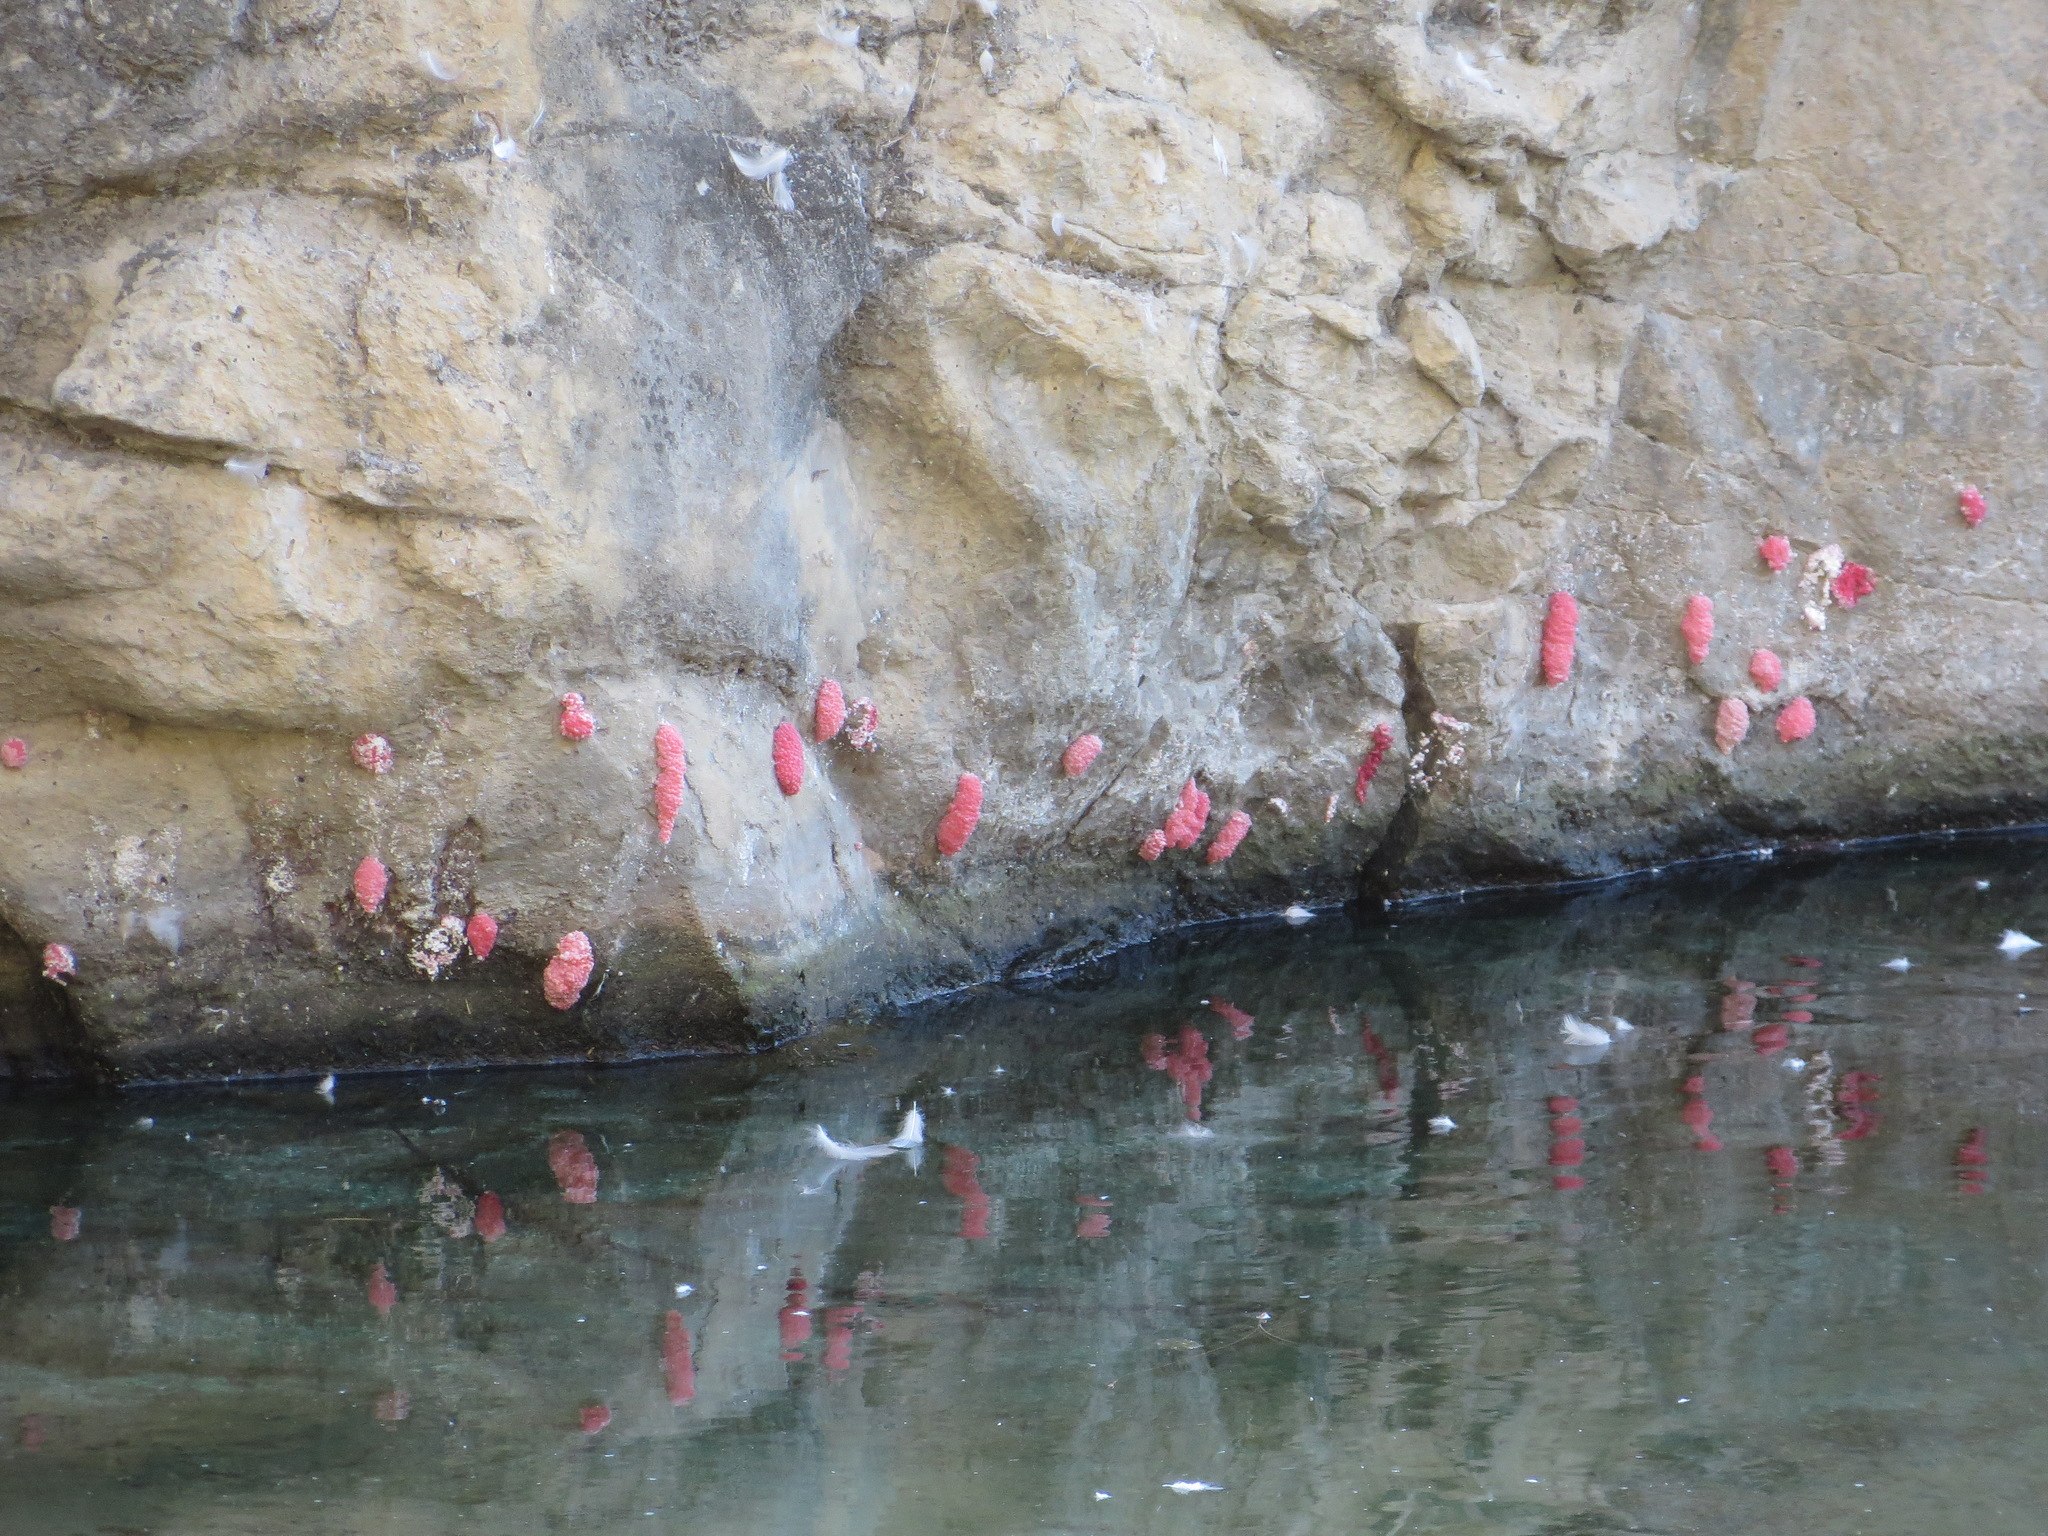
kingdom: Animalia
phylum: Mollusca
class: Gastropoda
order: Architaenioglossa
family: Ampullariidae
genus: Pomacea
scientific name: Pomacea canaliculata
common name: Channeled applesnail
